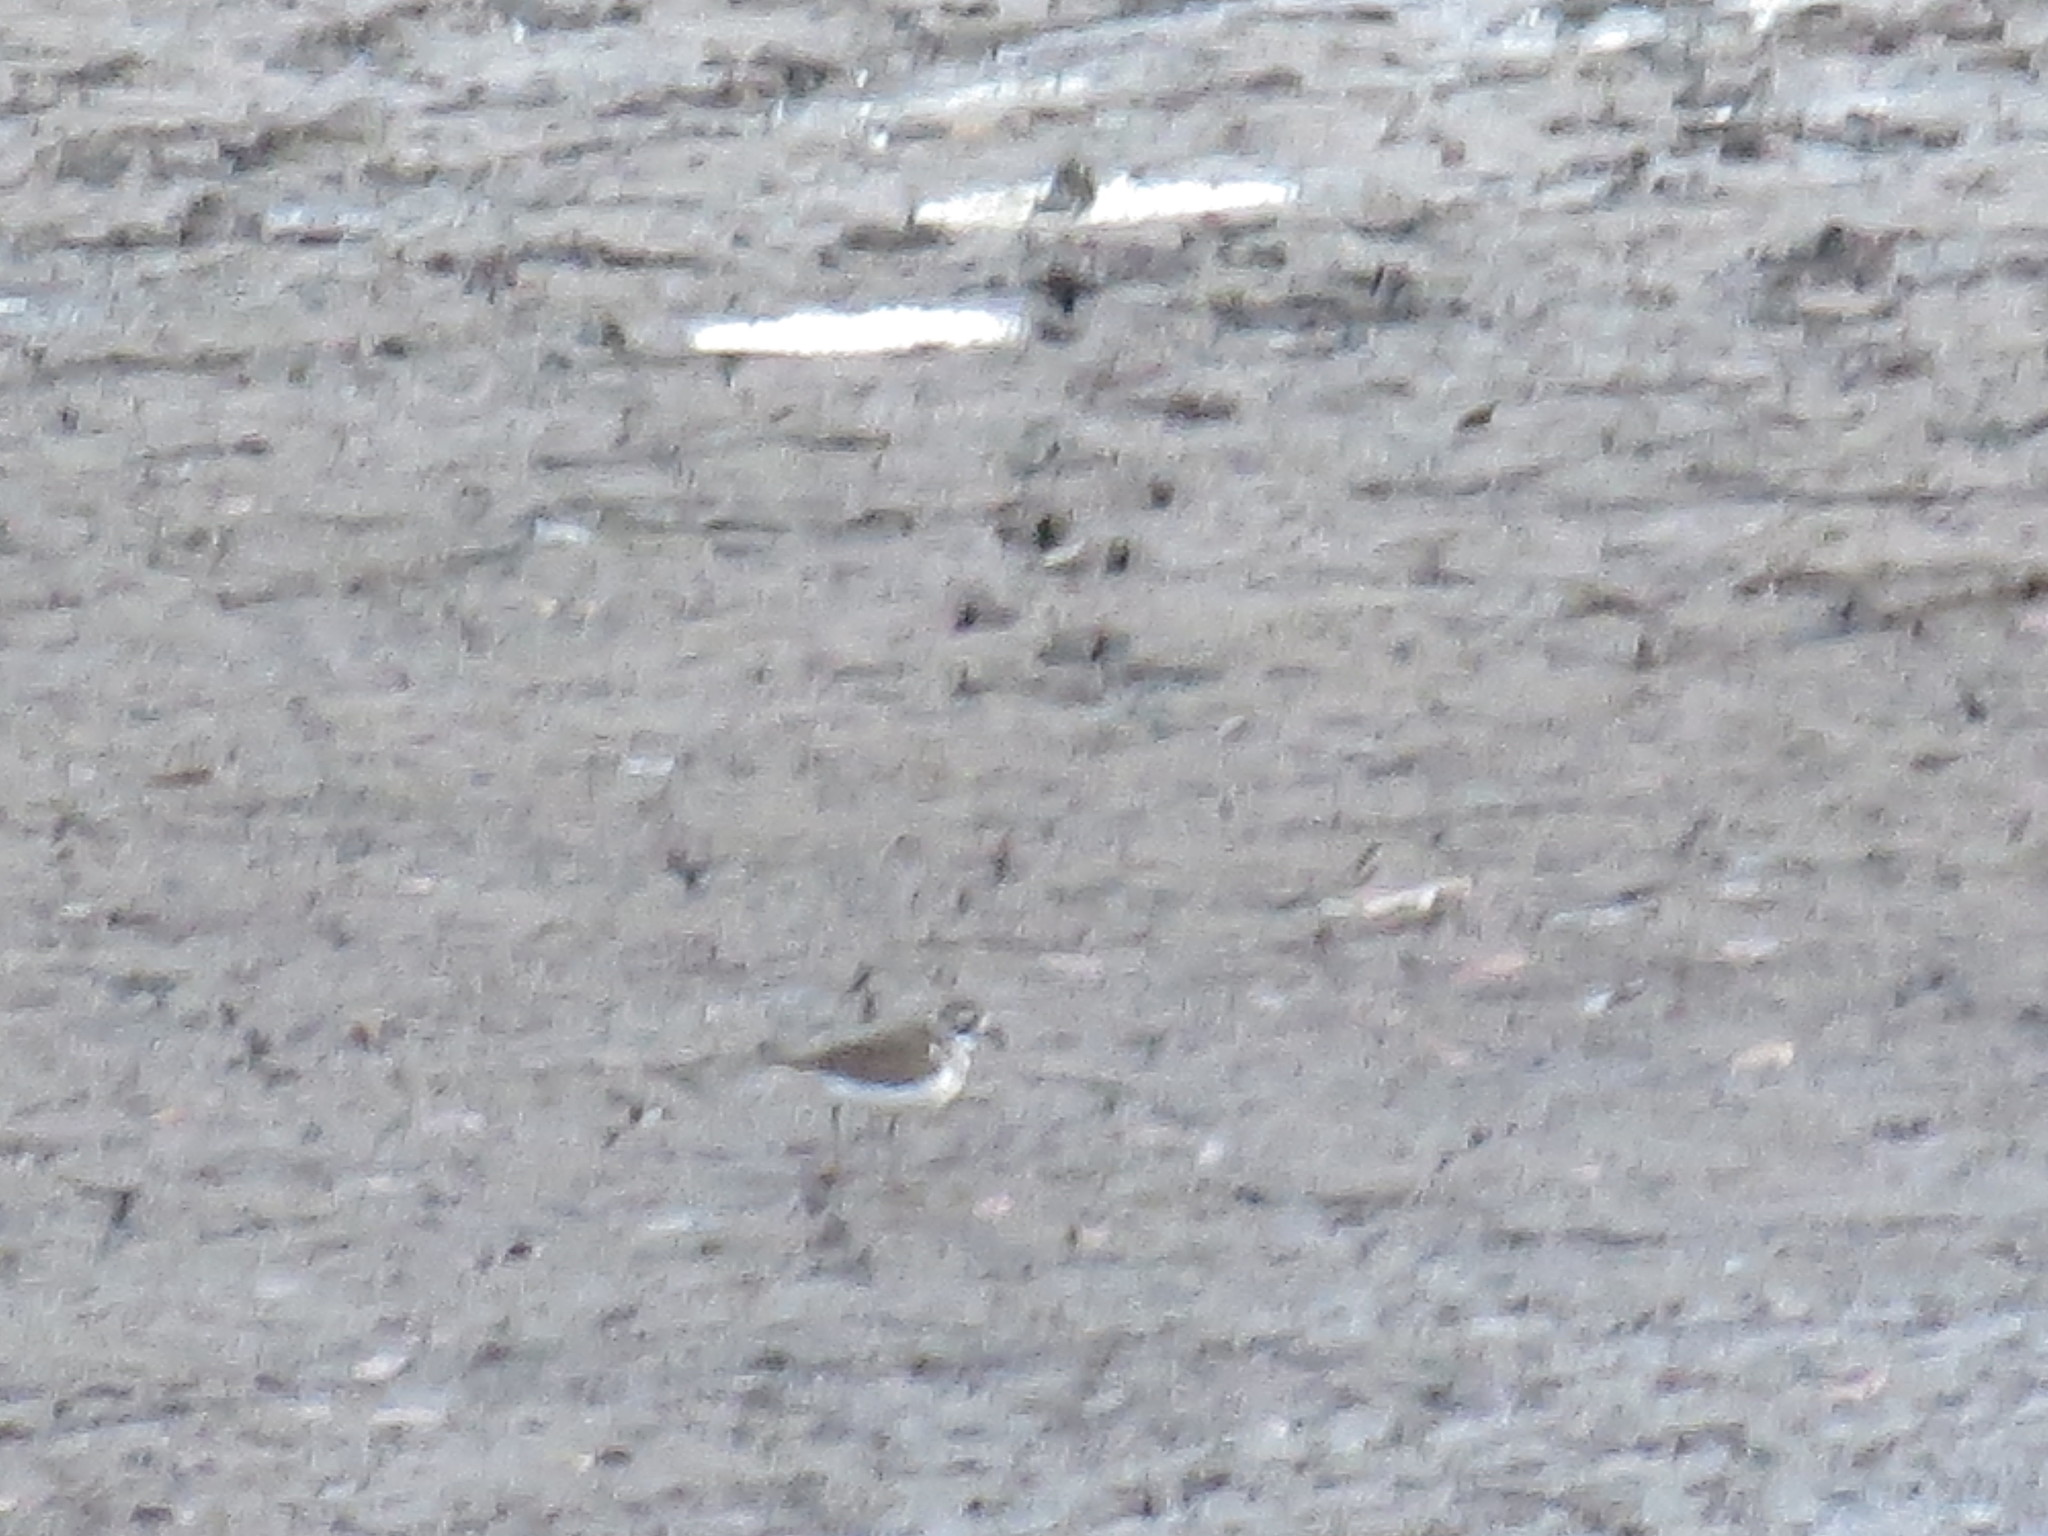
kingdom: Animalia
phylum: Chordata
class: Aves
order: Charadriiformes
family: Charadriidae
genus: Charadrius
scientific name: Charadrius vociferus
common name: Killdeer
